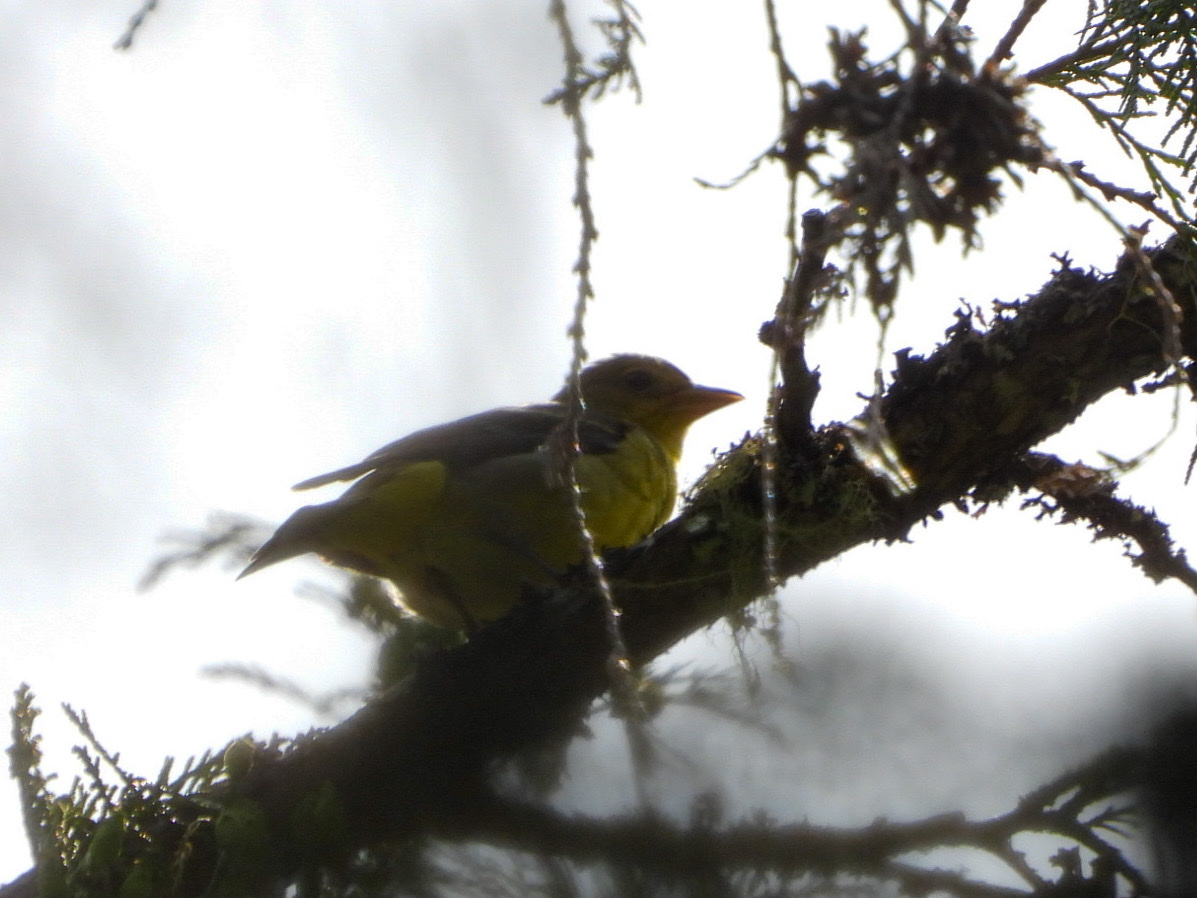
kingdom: Animalia
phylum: Chordata
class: Aves
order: Passeriformes
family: Cardinalidae
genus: Piranga
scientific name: Piranga ludoviciana
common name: Western tanager
